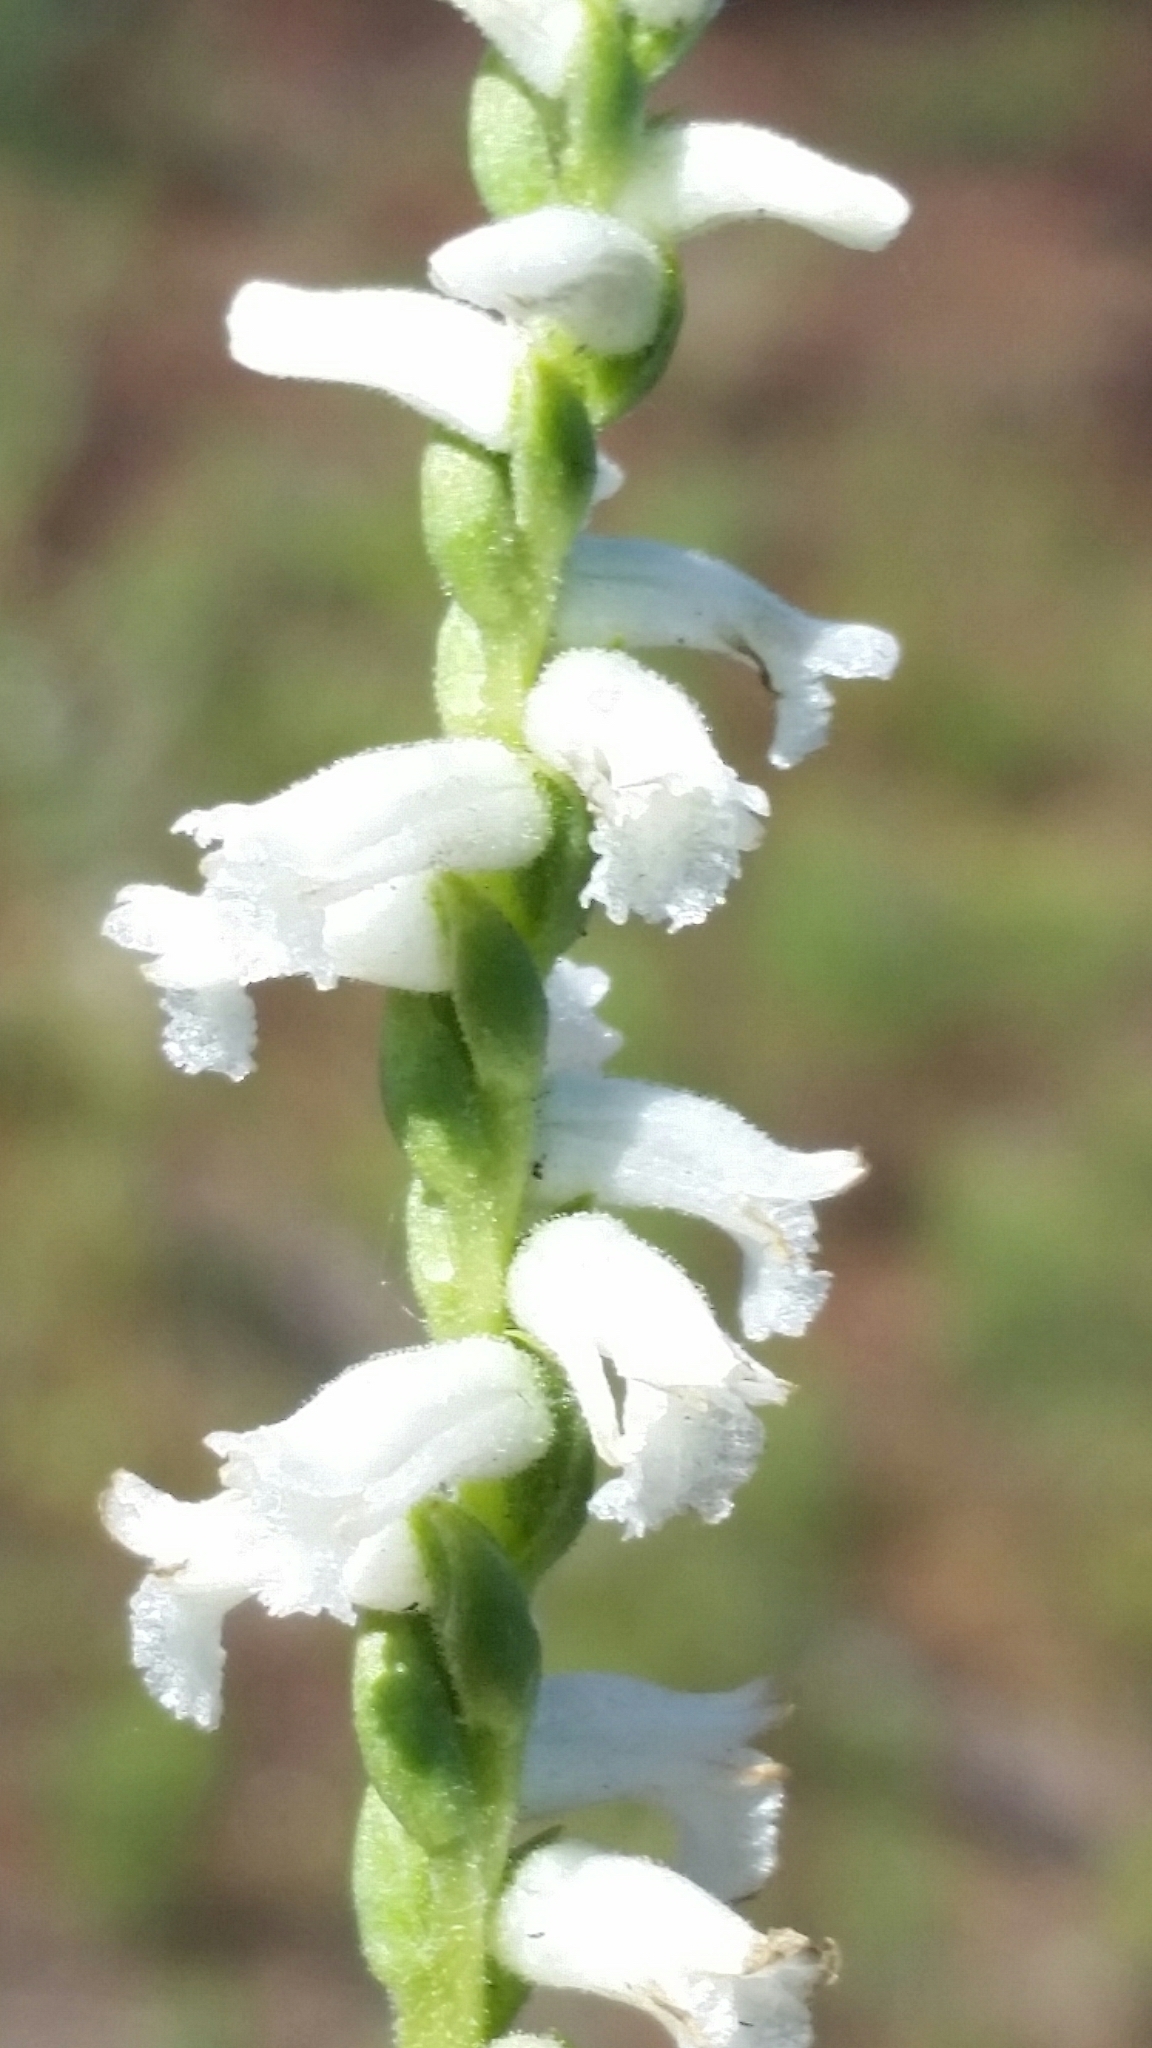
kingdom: Plantae
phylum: Tracheophyta
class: Liliopsida
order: Asparagales
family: Orchidaceae
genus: Spiranthes
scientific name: Spiranthes praecox
